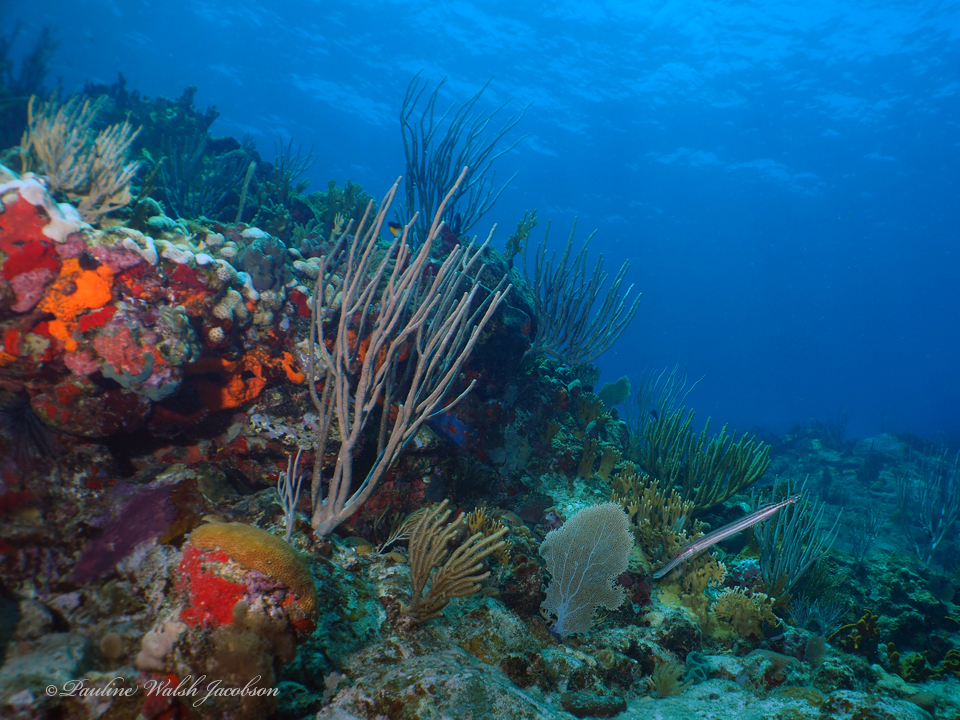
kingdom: Animalia
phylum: Chordata
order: Syngnathiformes
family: Aulostomidae
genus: Aulostomus
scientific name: Aulostomus maculatus
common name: West atlantic trumpetfish
